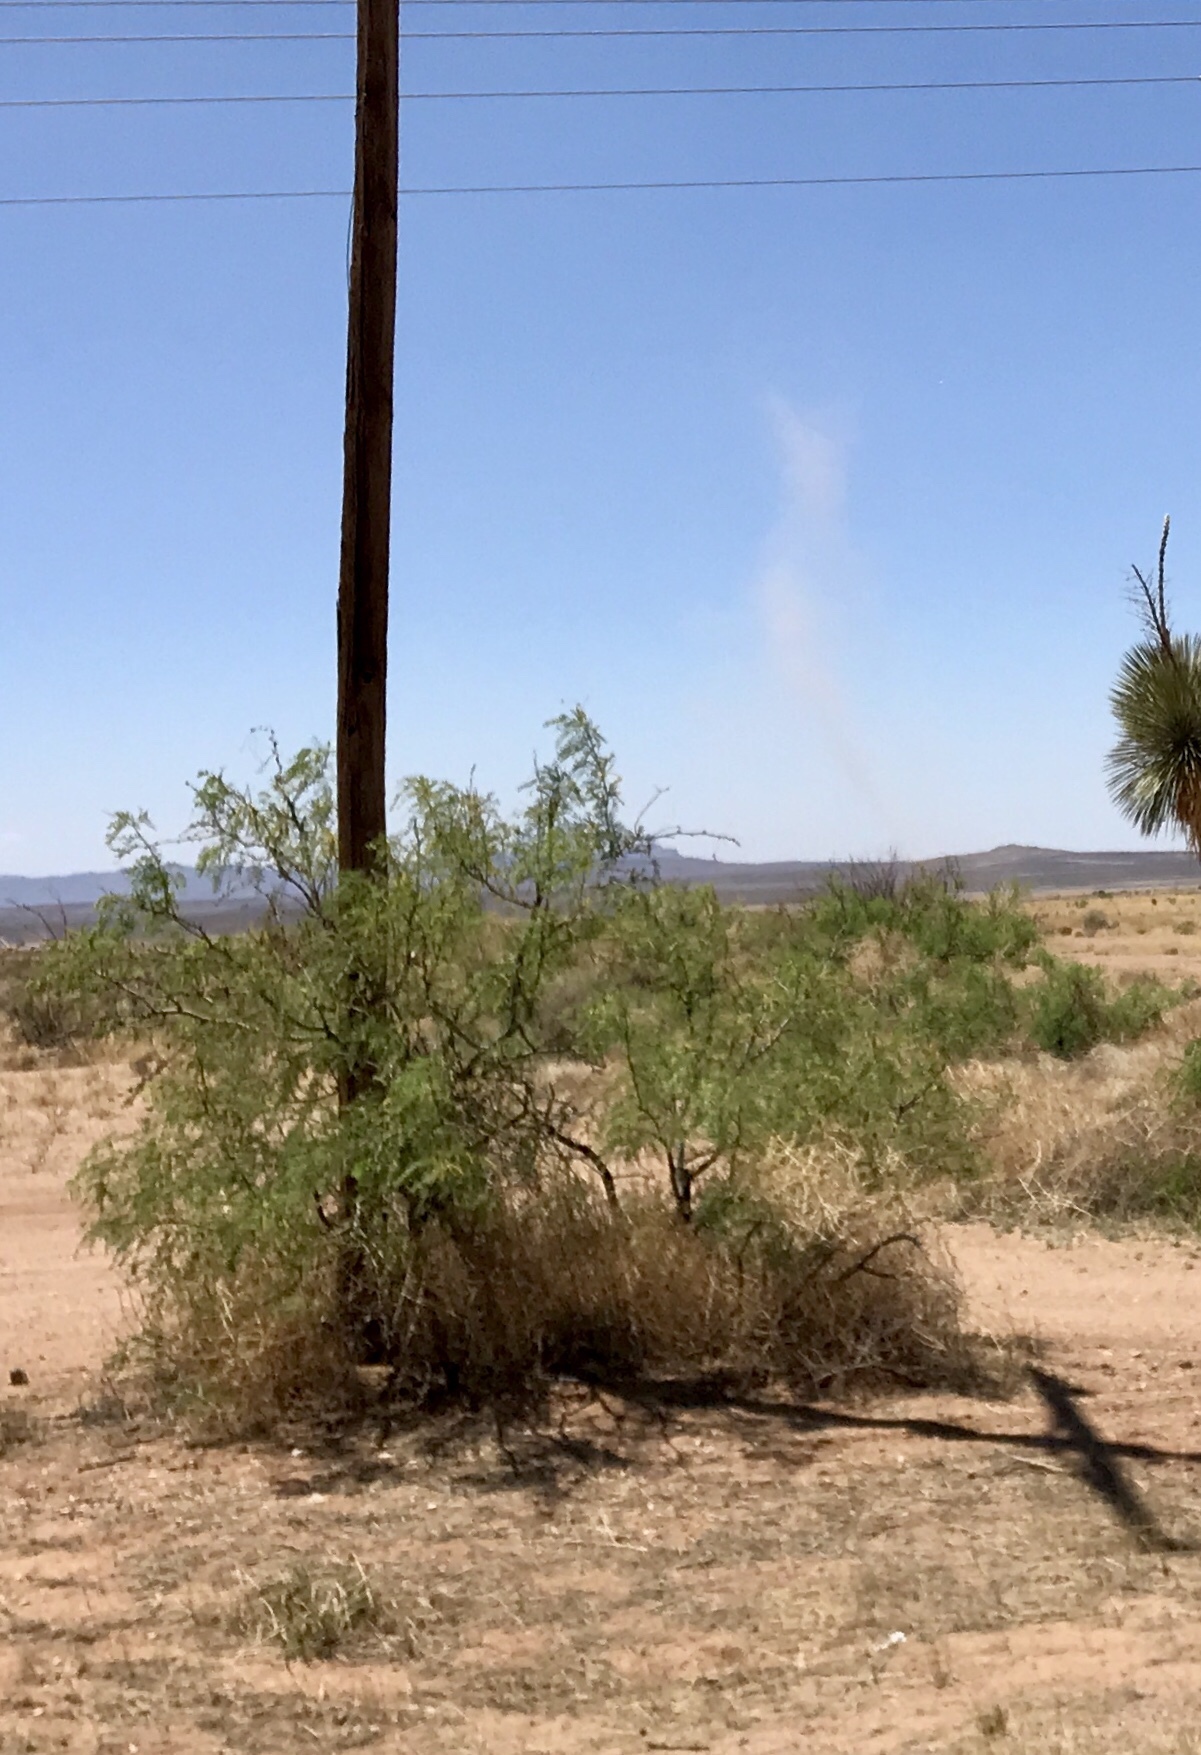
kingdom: Plantae
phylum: Tracheophyta
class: Magnoliopsida
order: Fabales
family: Fabaceae
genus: Prosopis
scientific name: Prosopis glandulosa
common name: Honey mesquite
